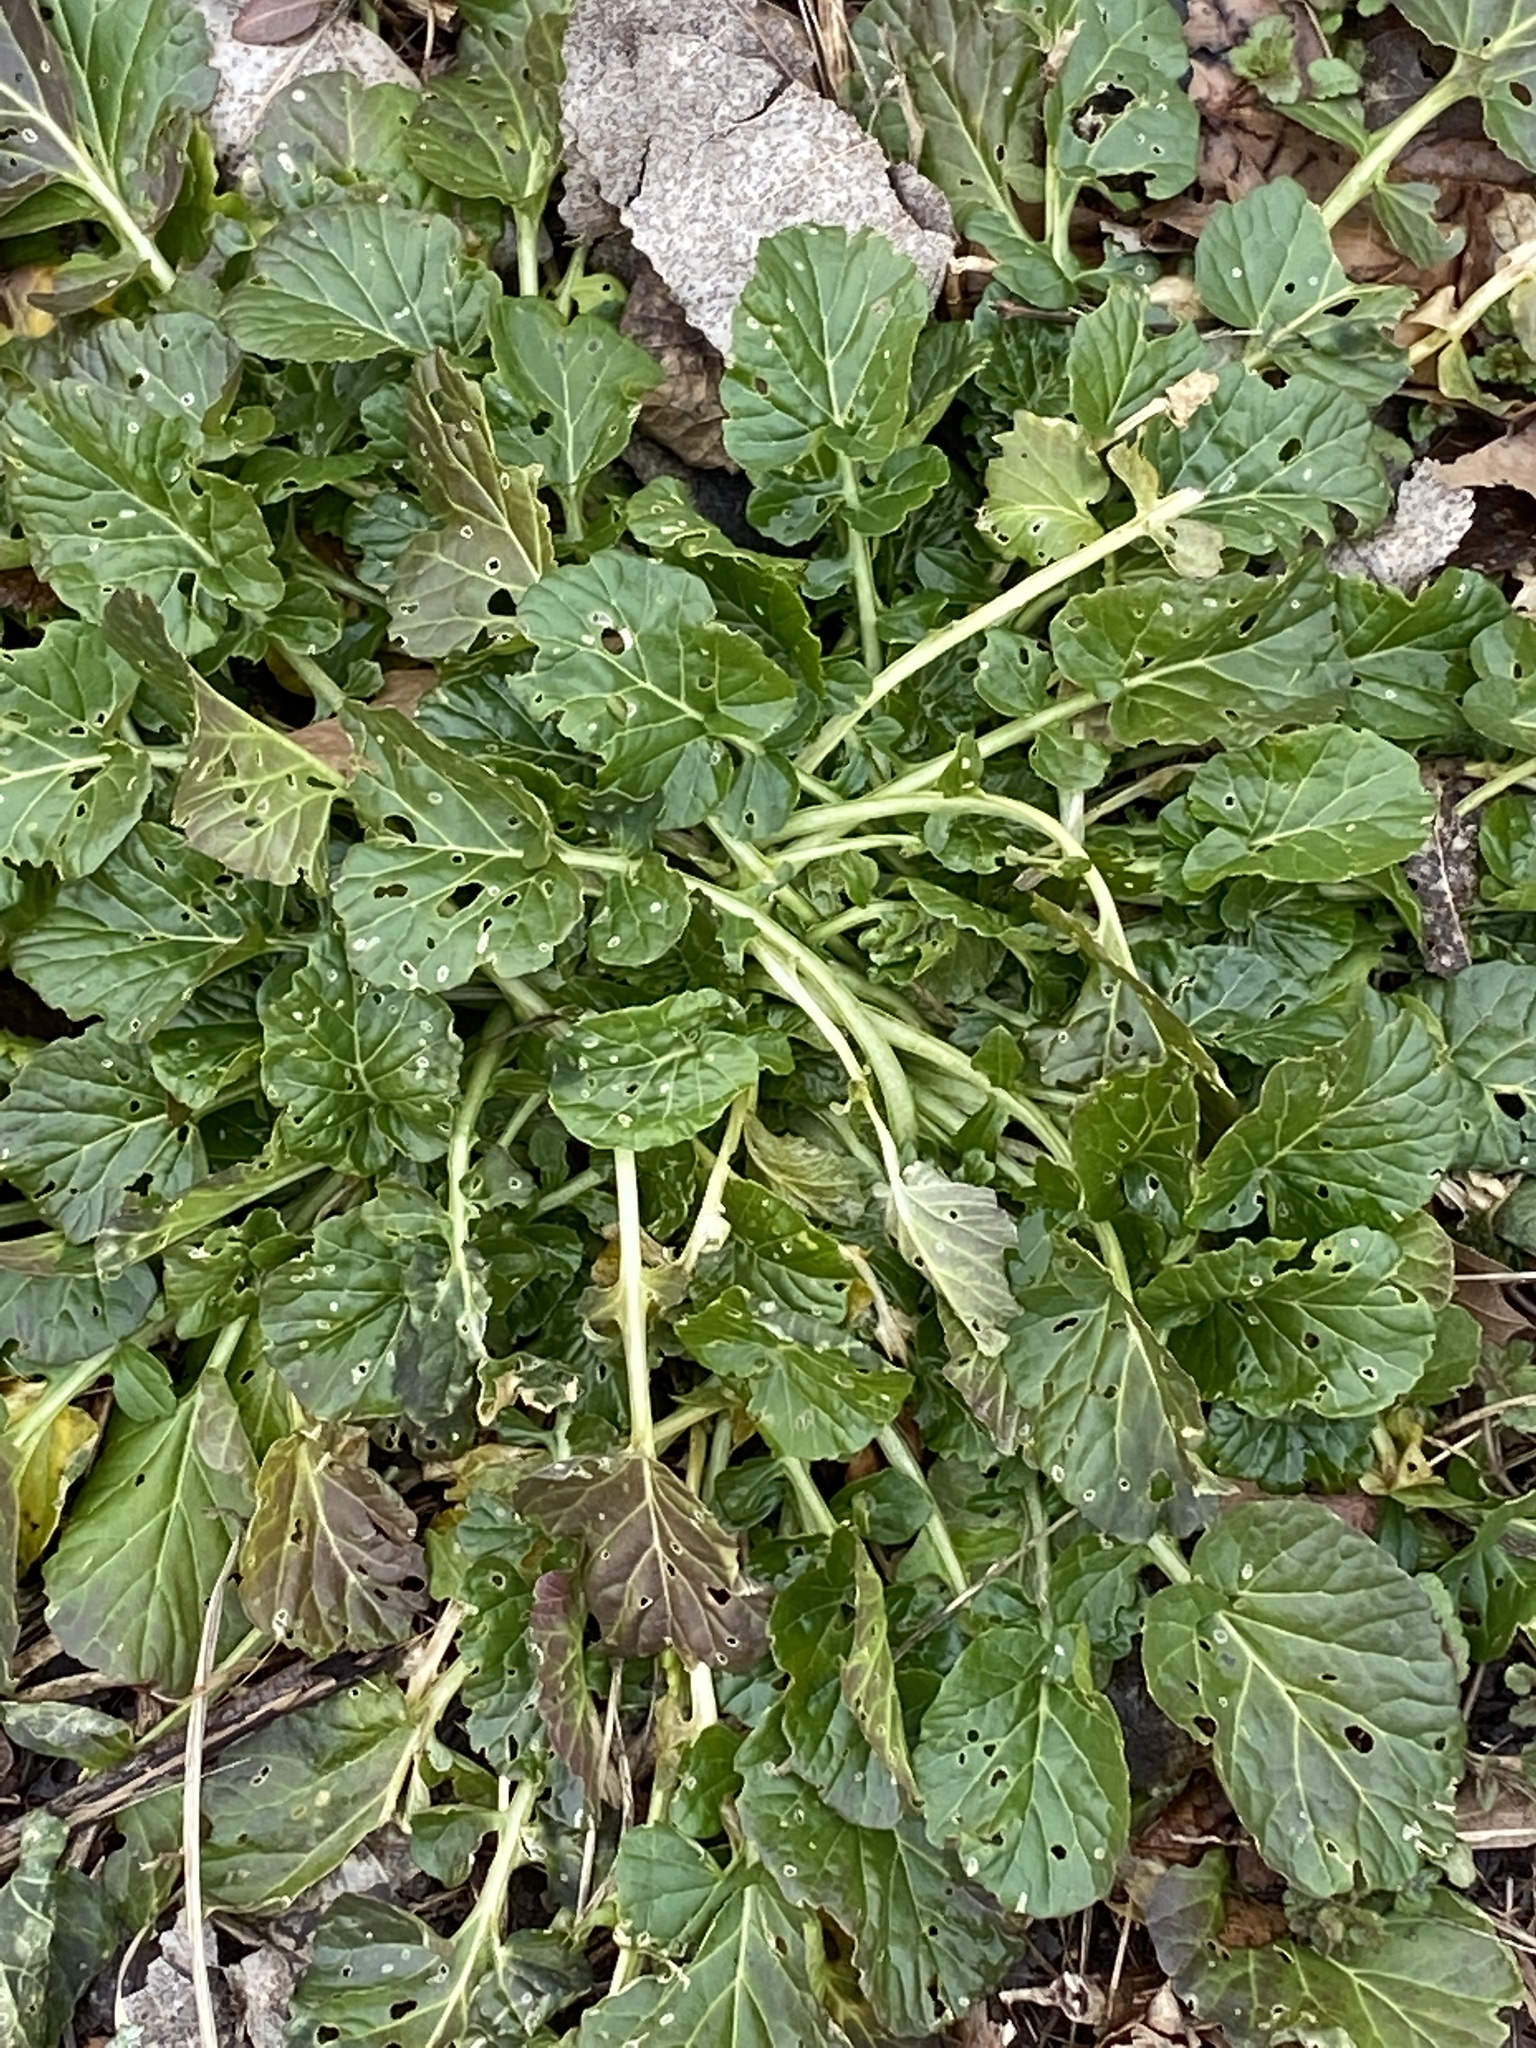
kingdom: Plantae
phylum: Tracheophyta
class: Magnoliopsida
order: Brassicales
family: Brassicaceae
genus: Barbarea
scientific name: Barbarea vulgaris
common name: Cressy-greens
